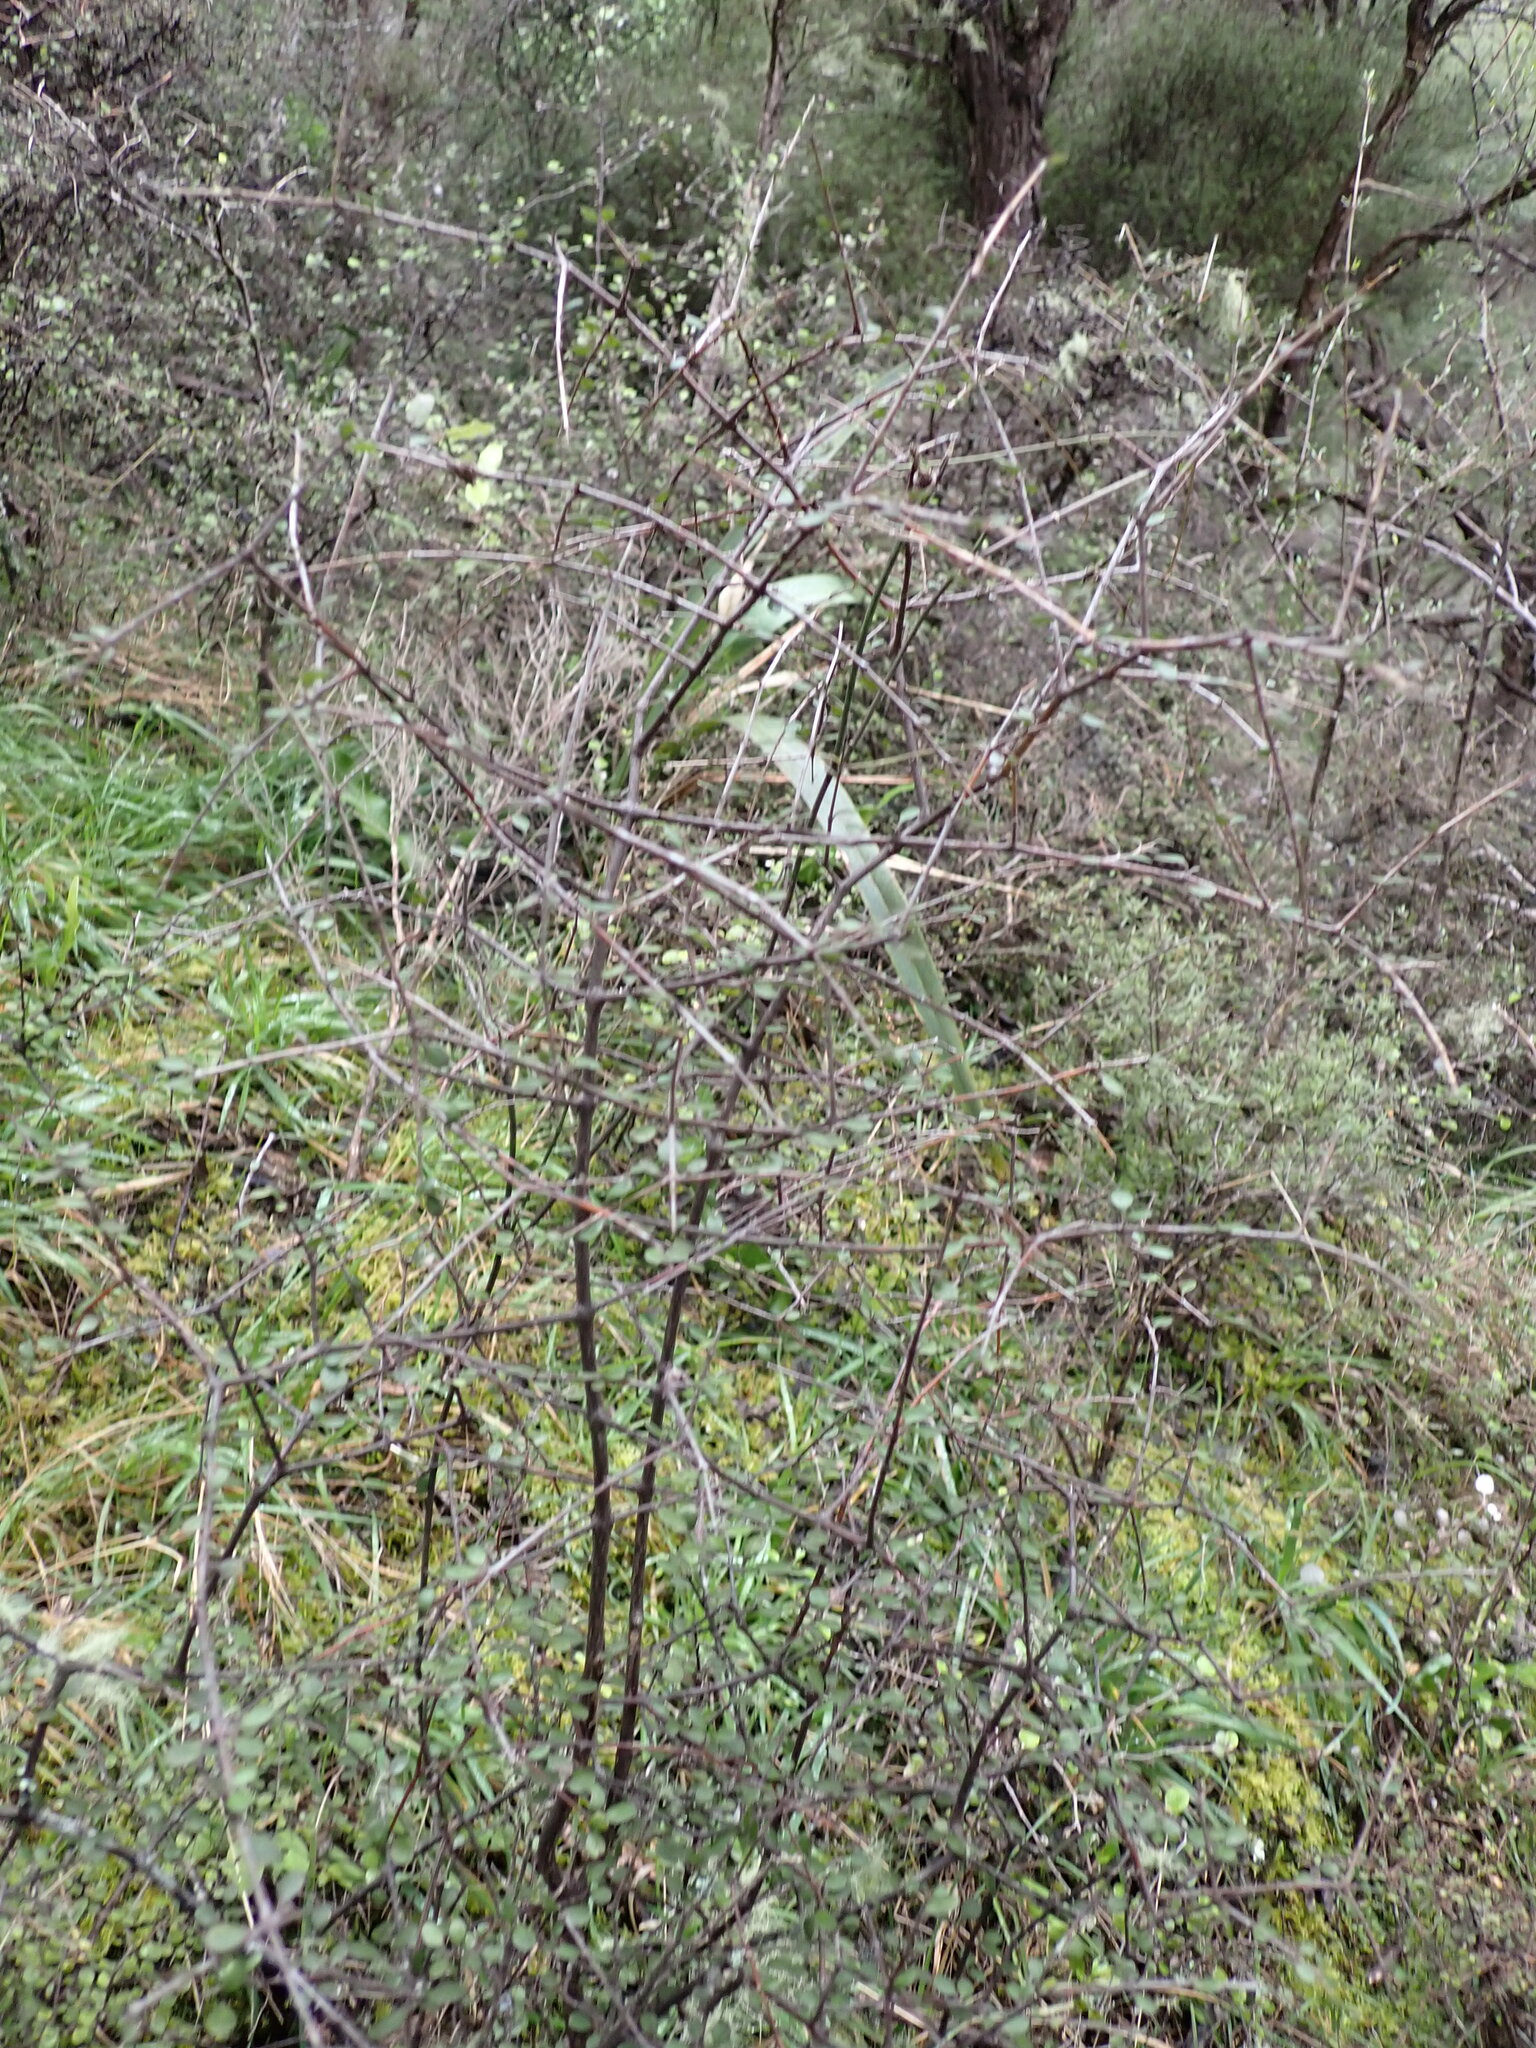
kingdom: Plantae
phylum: Tracheophyta
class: Magnoliopsida
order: Gentianales
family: Rubiaceae
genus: Coprosma
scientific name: Coprosma crassifolia
